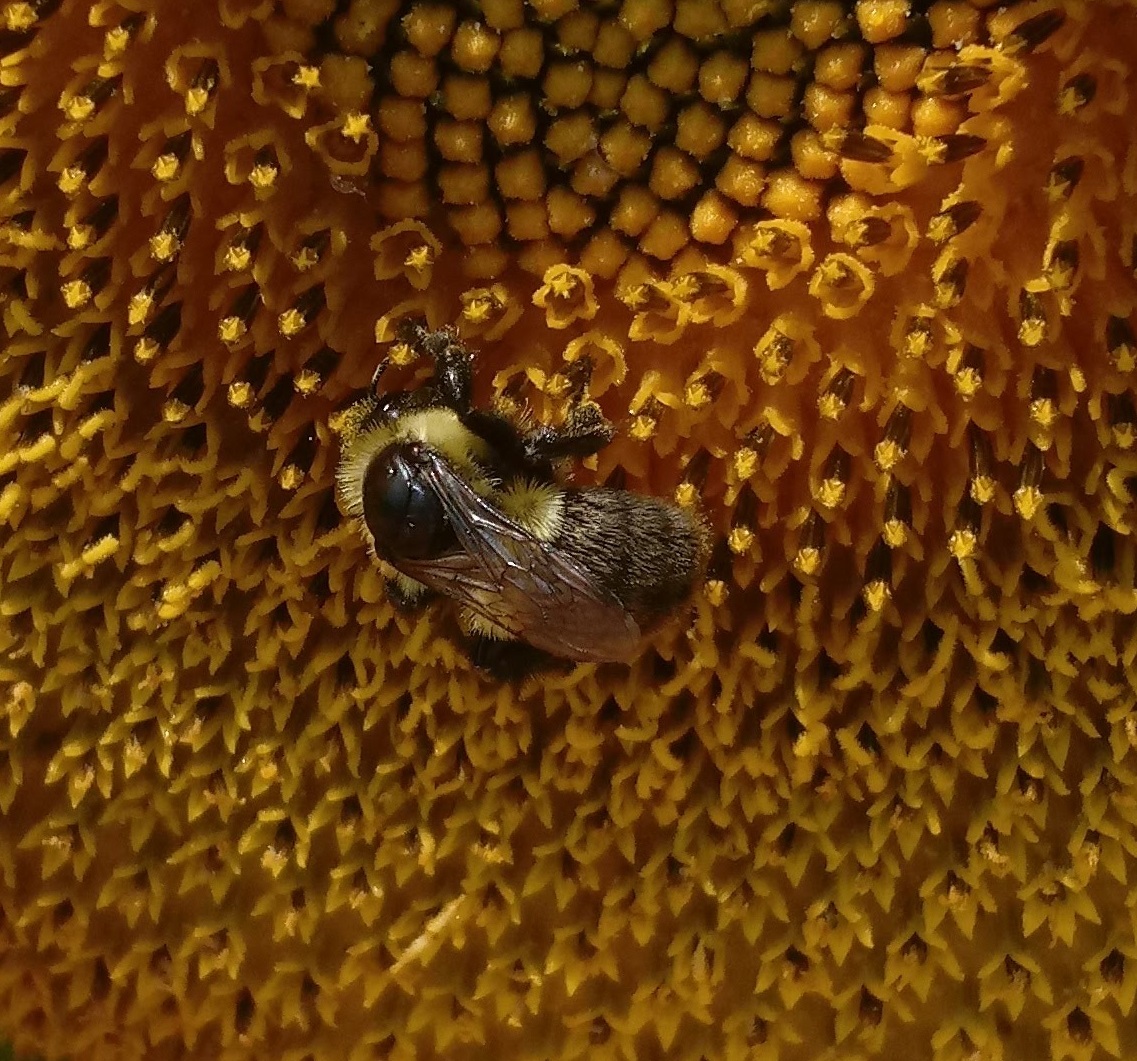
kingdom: Animalia
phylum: Arthropoda
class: Insecta
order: Hymenoptera
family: Apidae
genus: Bombus
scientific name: Bombus impatiens
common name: Common eastern bumble bee
